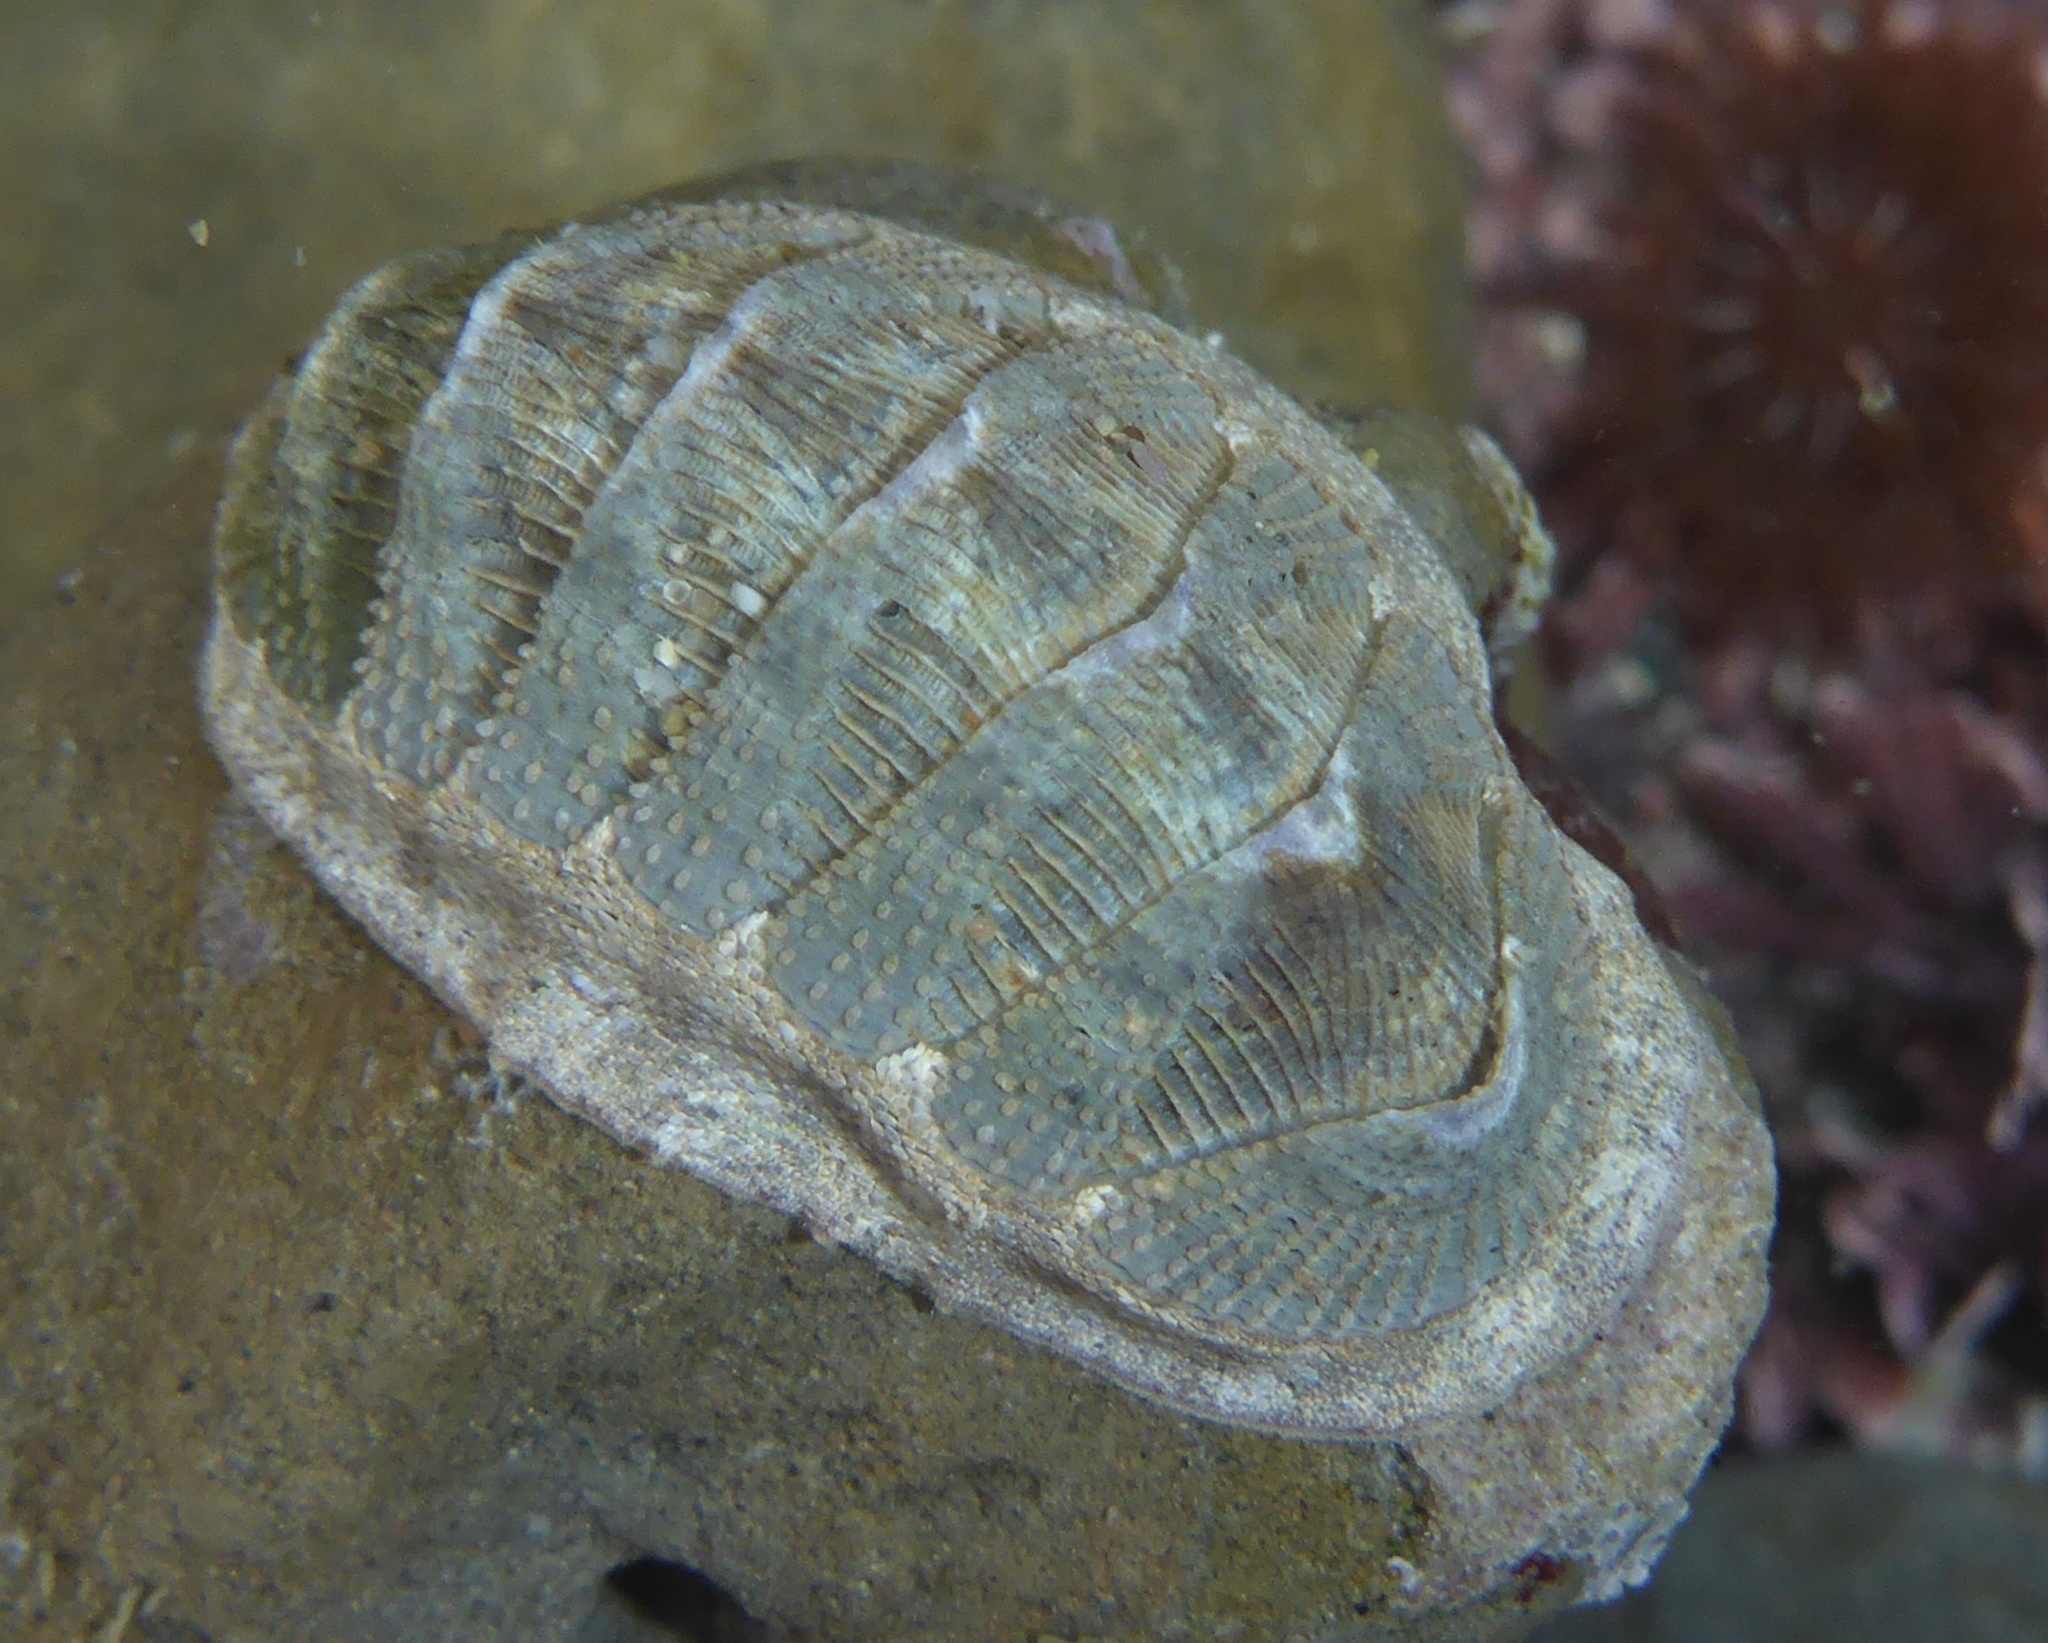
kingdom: Animalia
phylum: Mollusca
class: Polyplacophora
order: Chitonida
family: Ischnochitonidae
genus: Lepidozona
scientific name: Lepidozona cooperi
